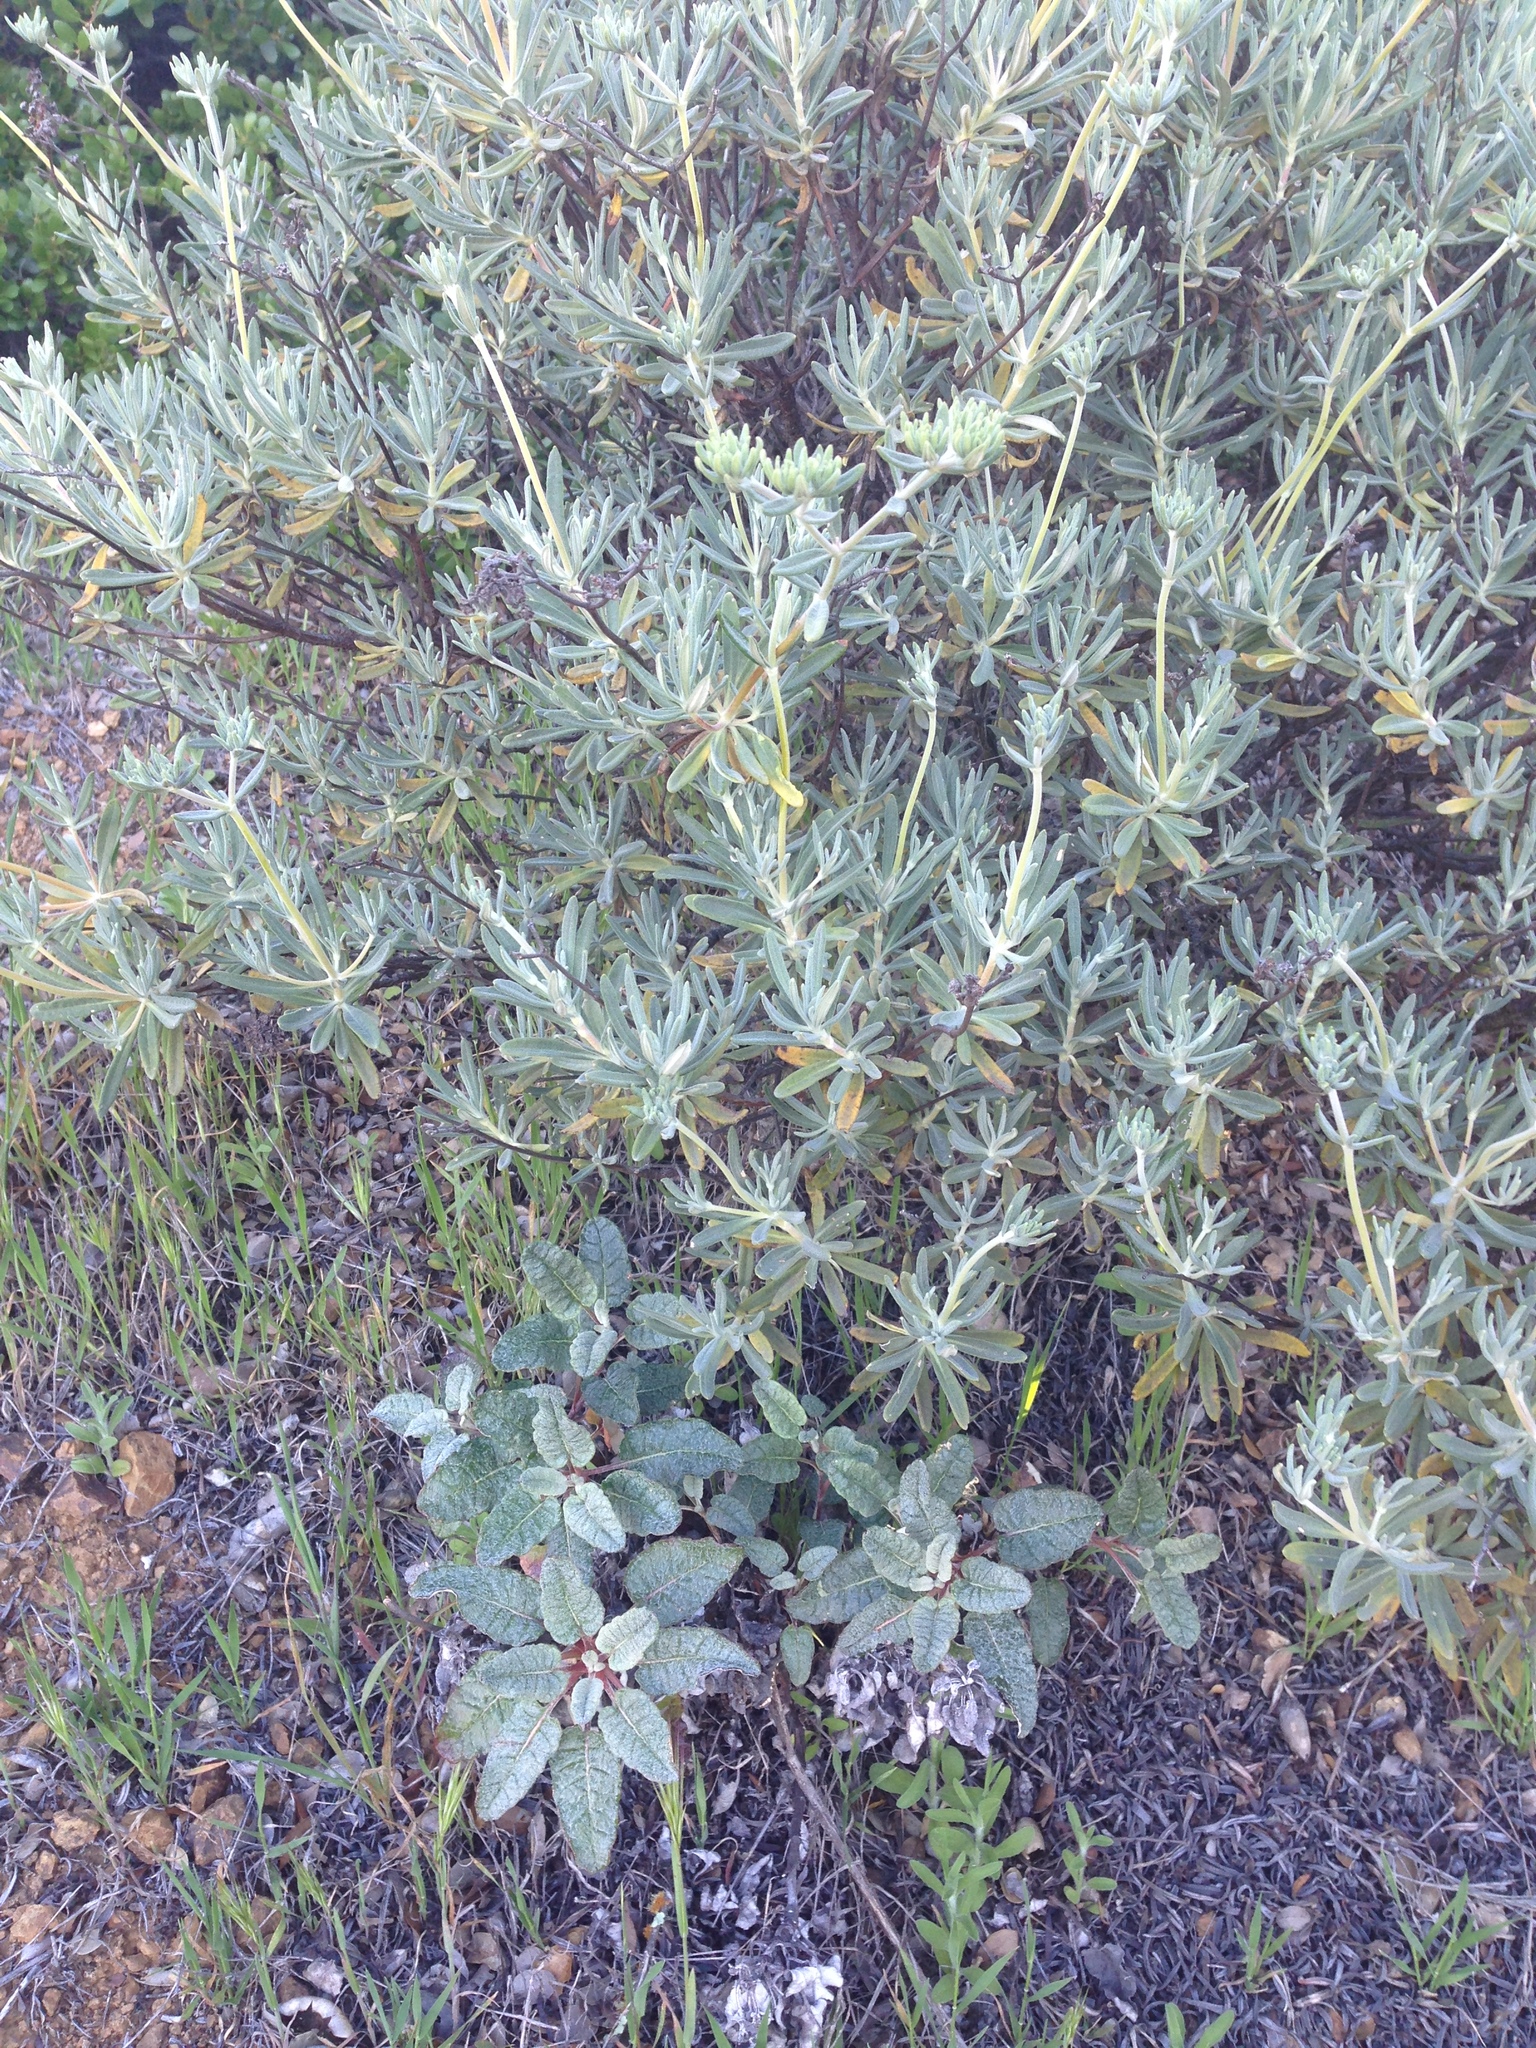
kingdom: Plantae
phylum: Tracheophyta
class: Magnoliopsida
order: Caryophyllales
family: Polygonaceae
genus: Eriogonum
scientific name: Eriogonum arborescens
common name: Island buckwheat
